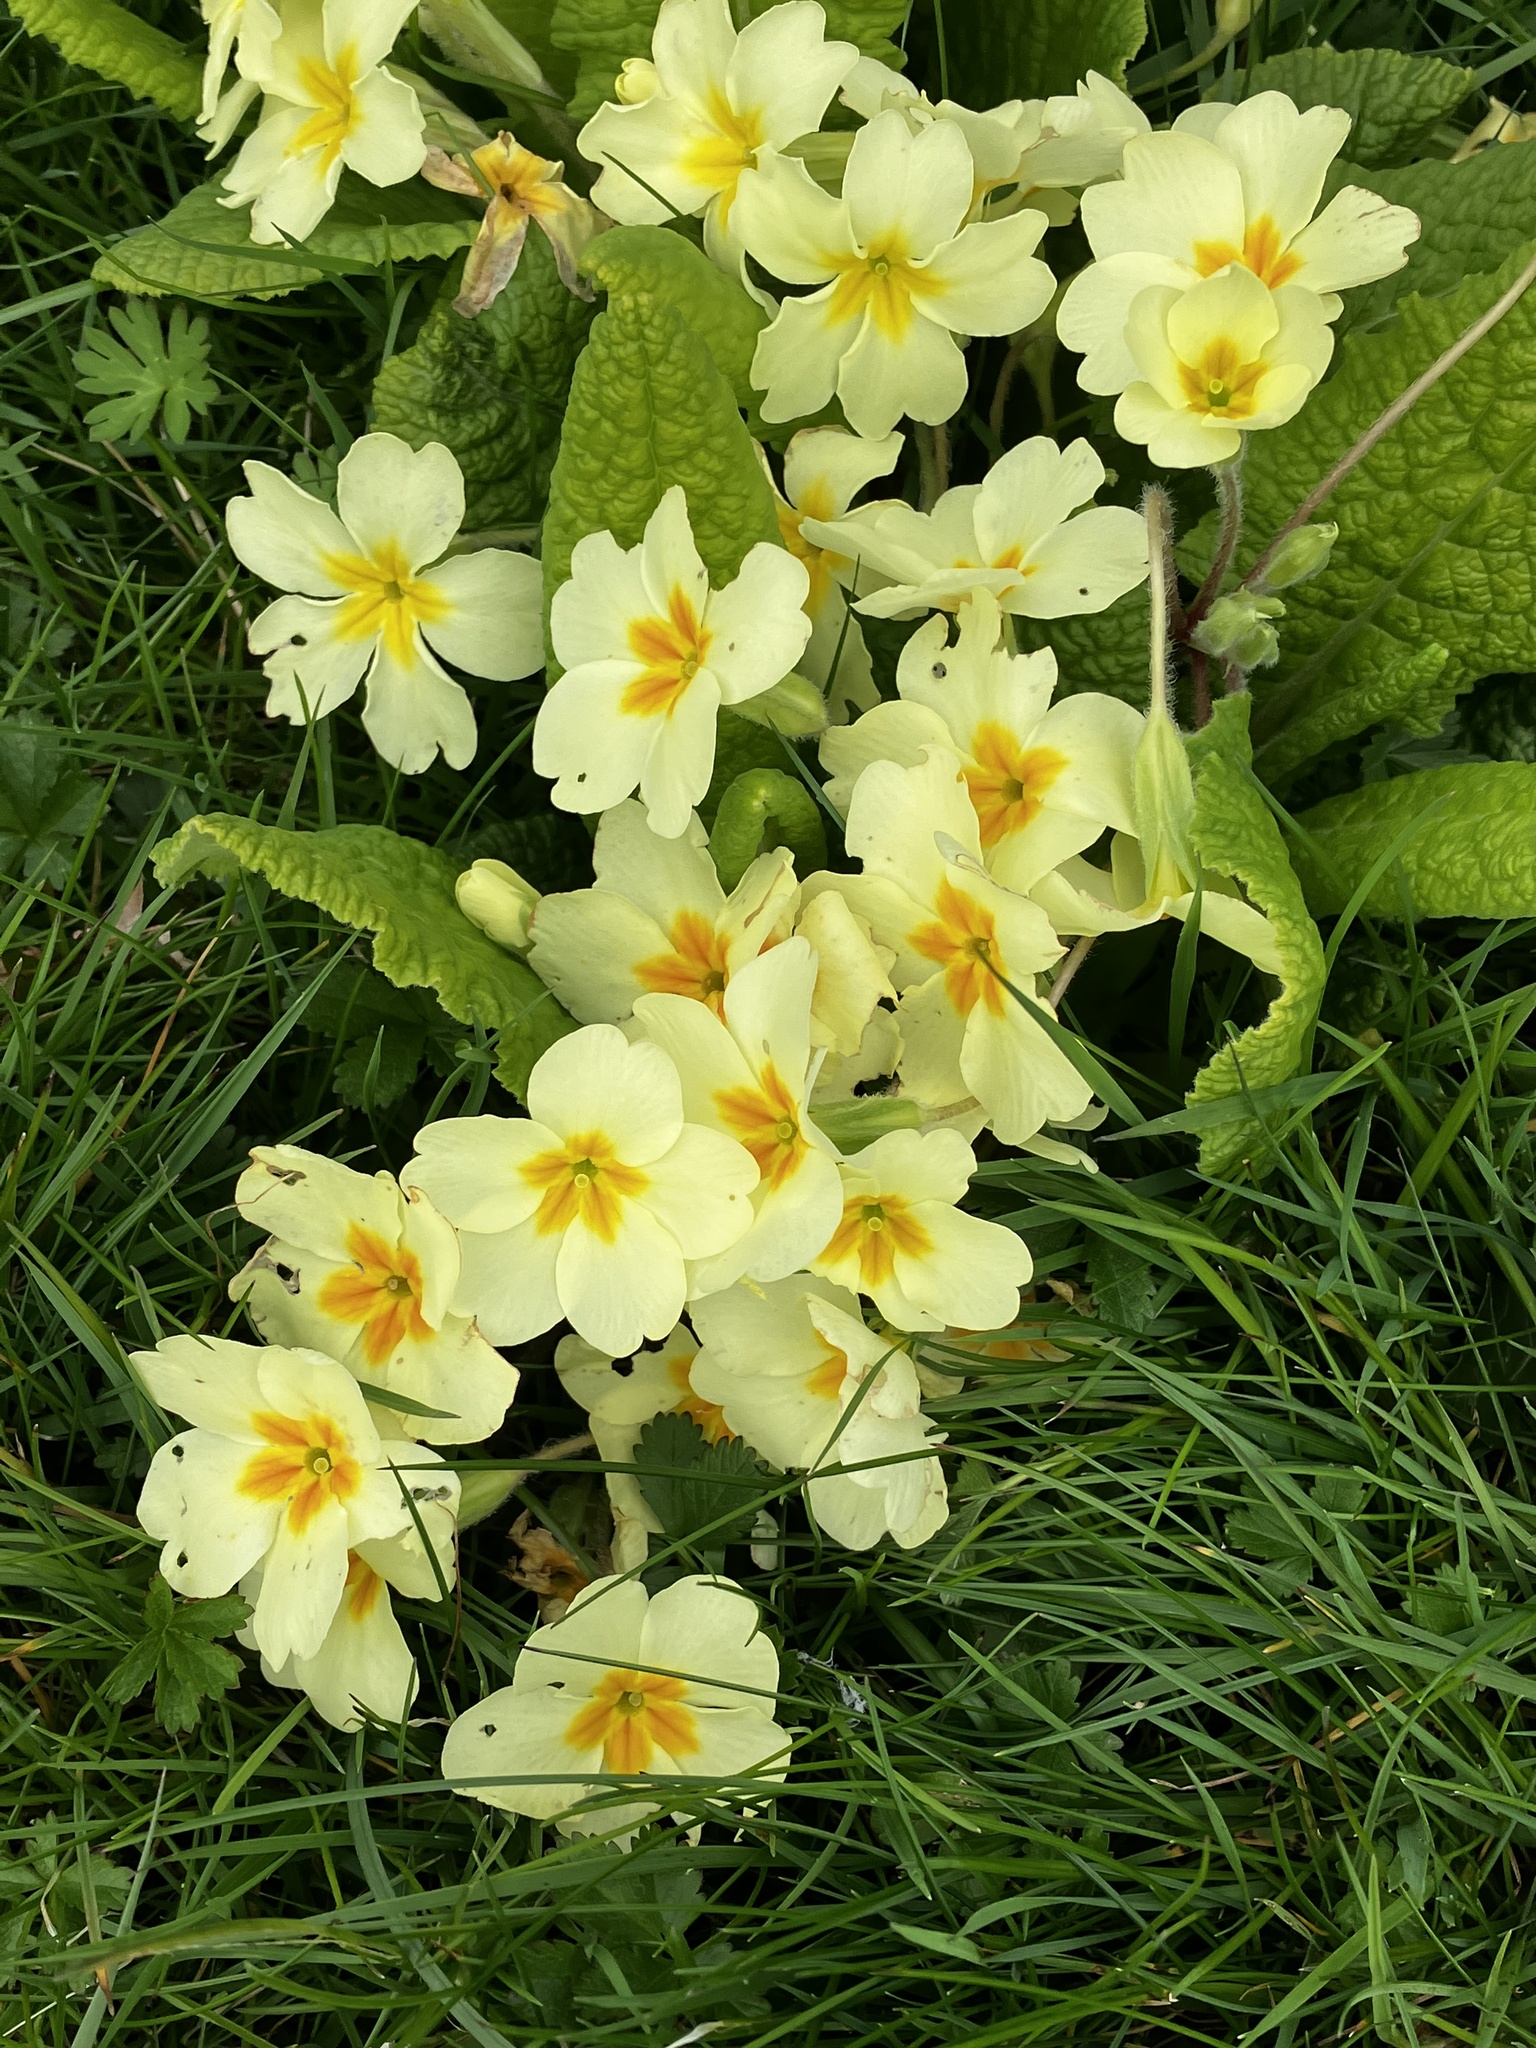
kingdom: Plantae
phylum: Tracheophyta
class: Magnoliopsida
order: Ericales
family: Primulaceae
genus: Primula
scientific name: Primula vulgaris
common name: Primrose
